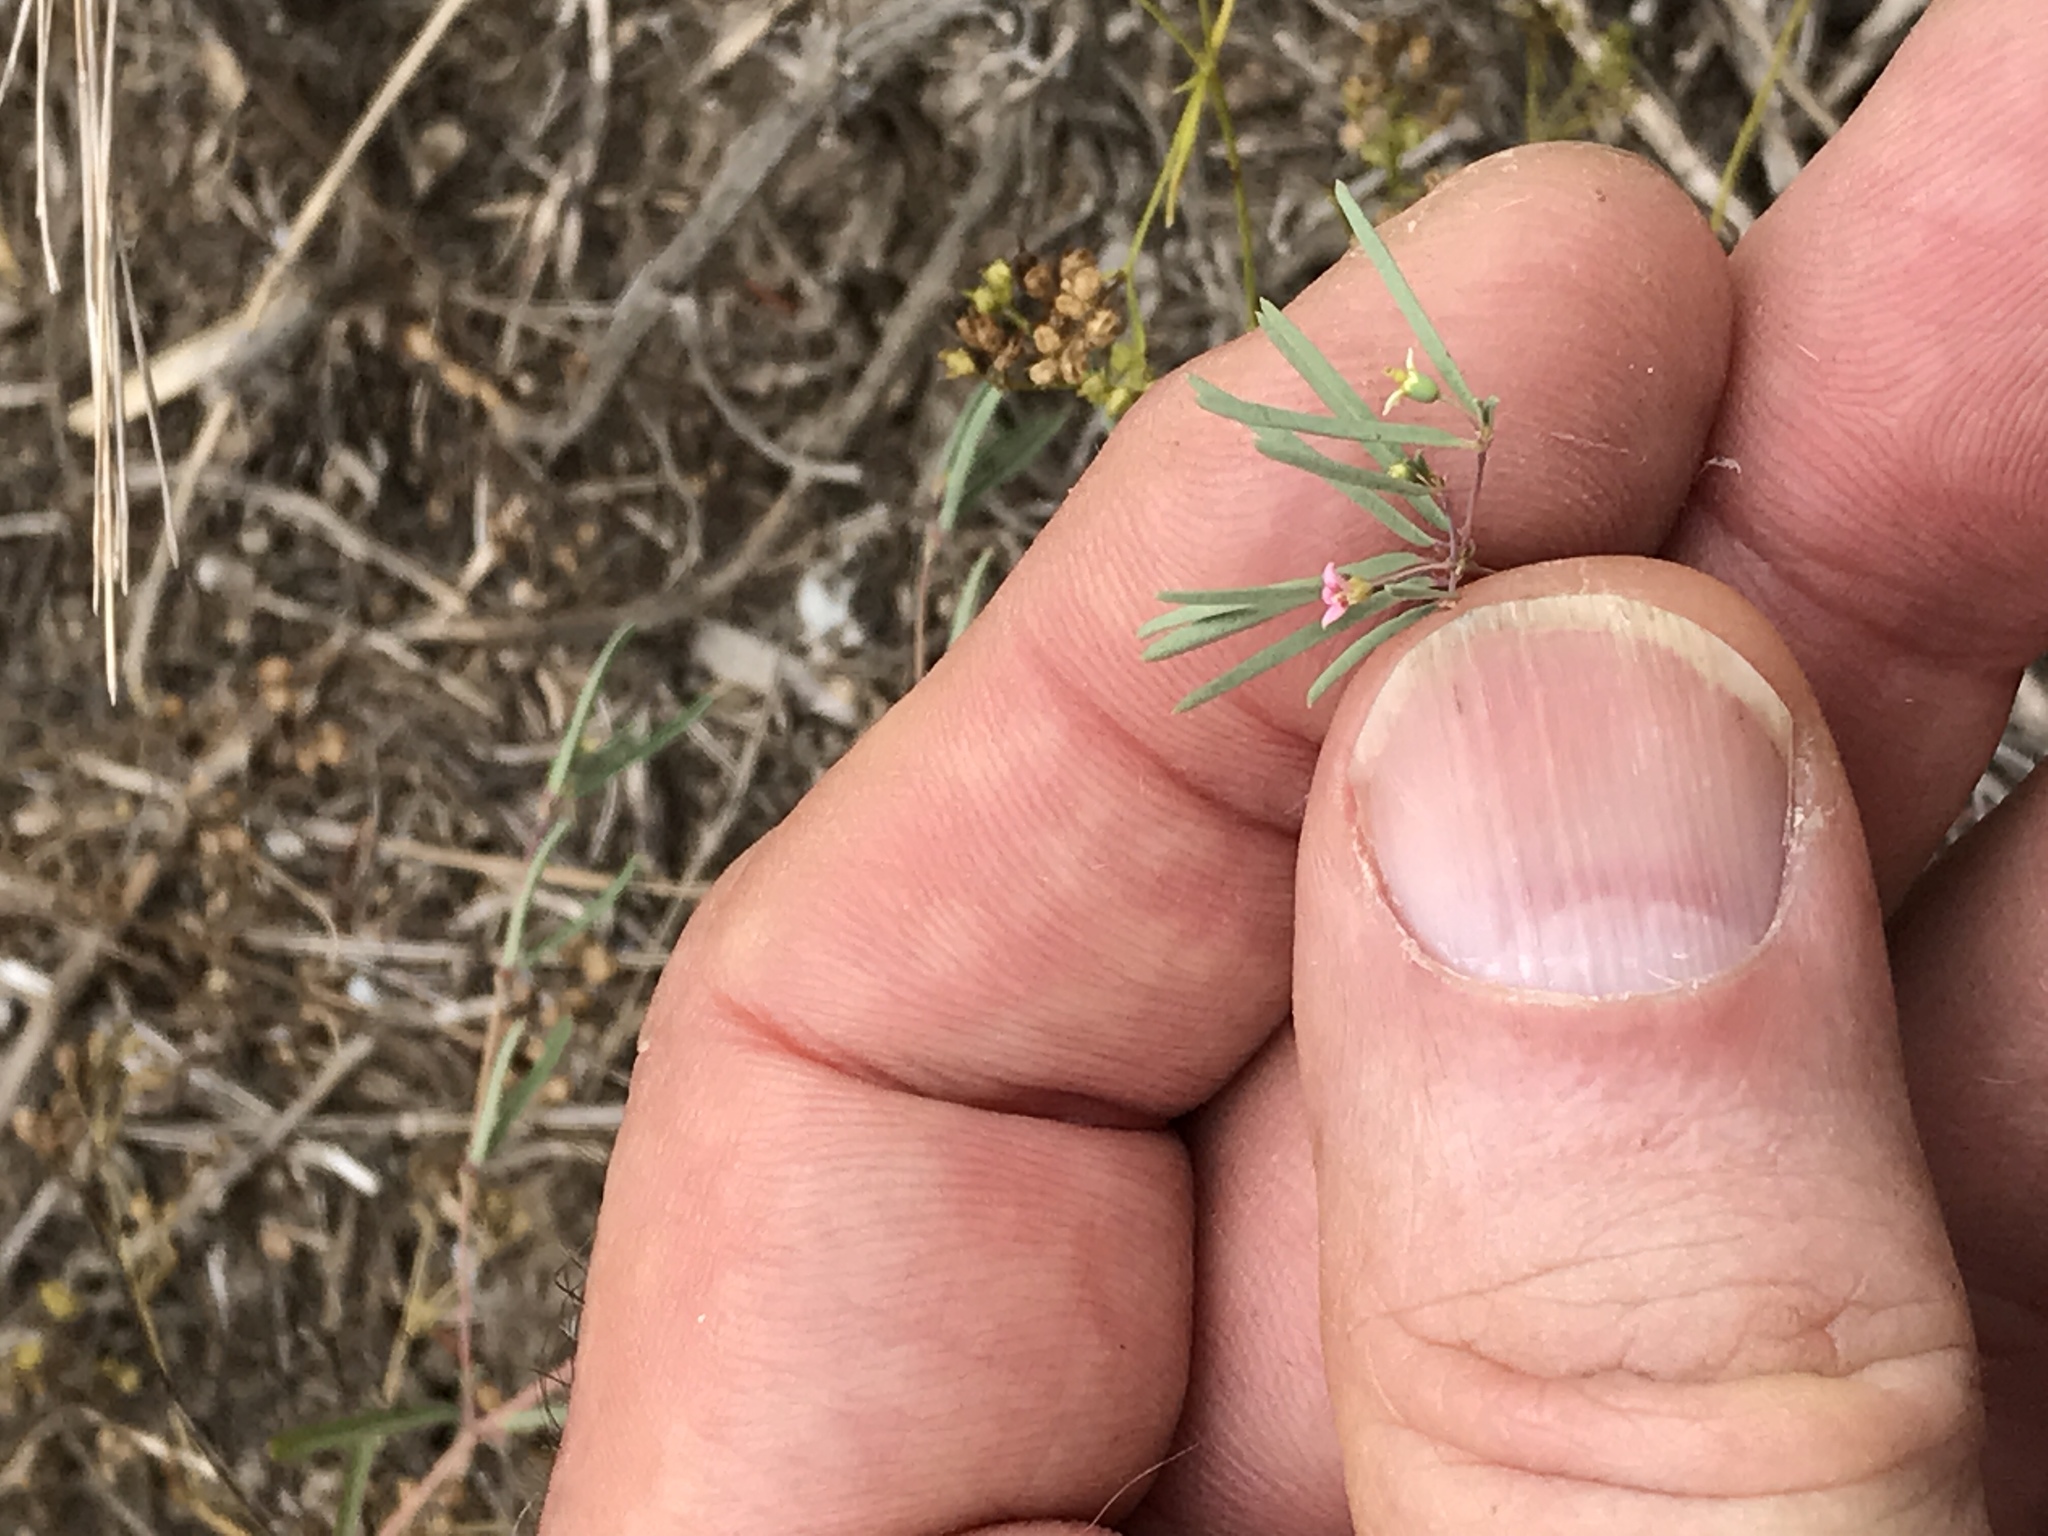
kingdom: Plantae
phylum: Tracheophyta
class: Magnoliopsida
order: Malpighiales
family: Euphorbiaceae
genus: Euphorbia
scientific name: Euphorbia missurica
